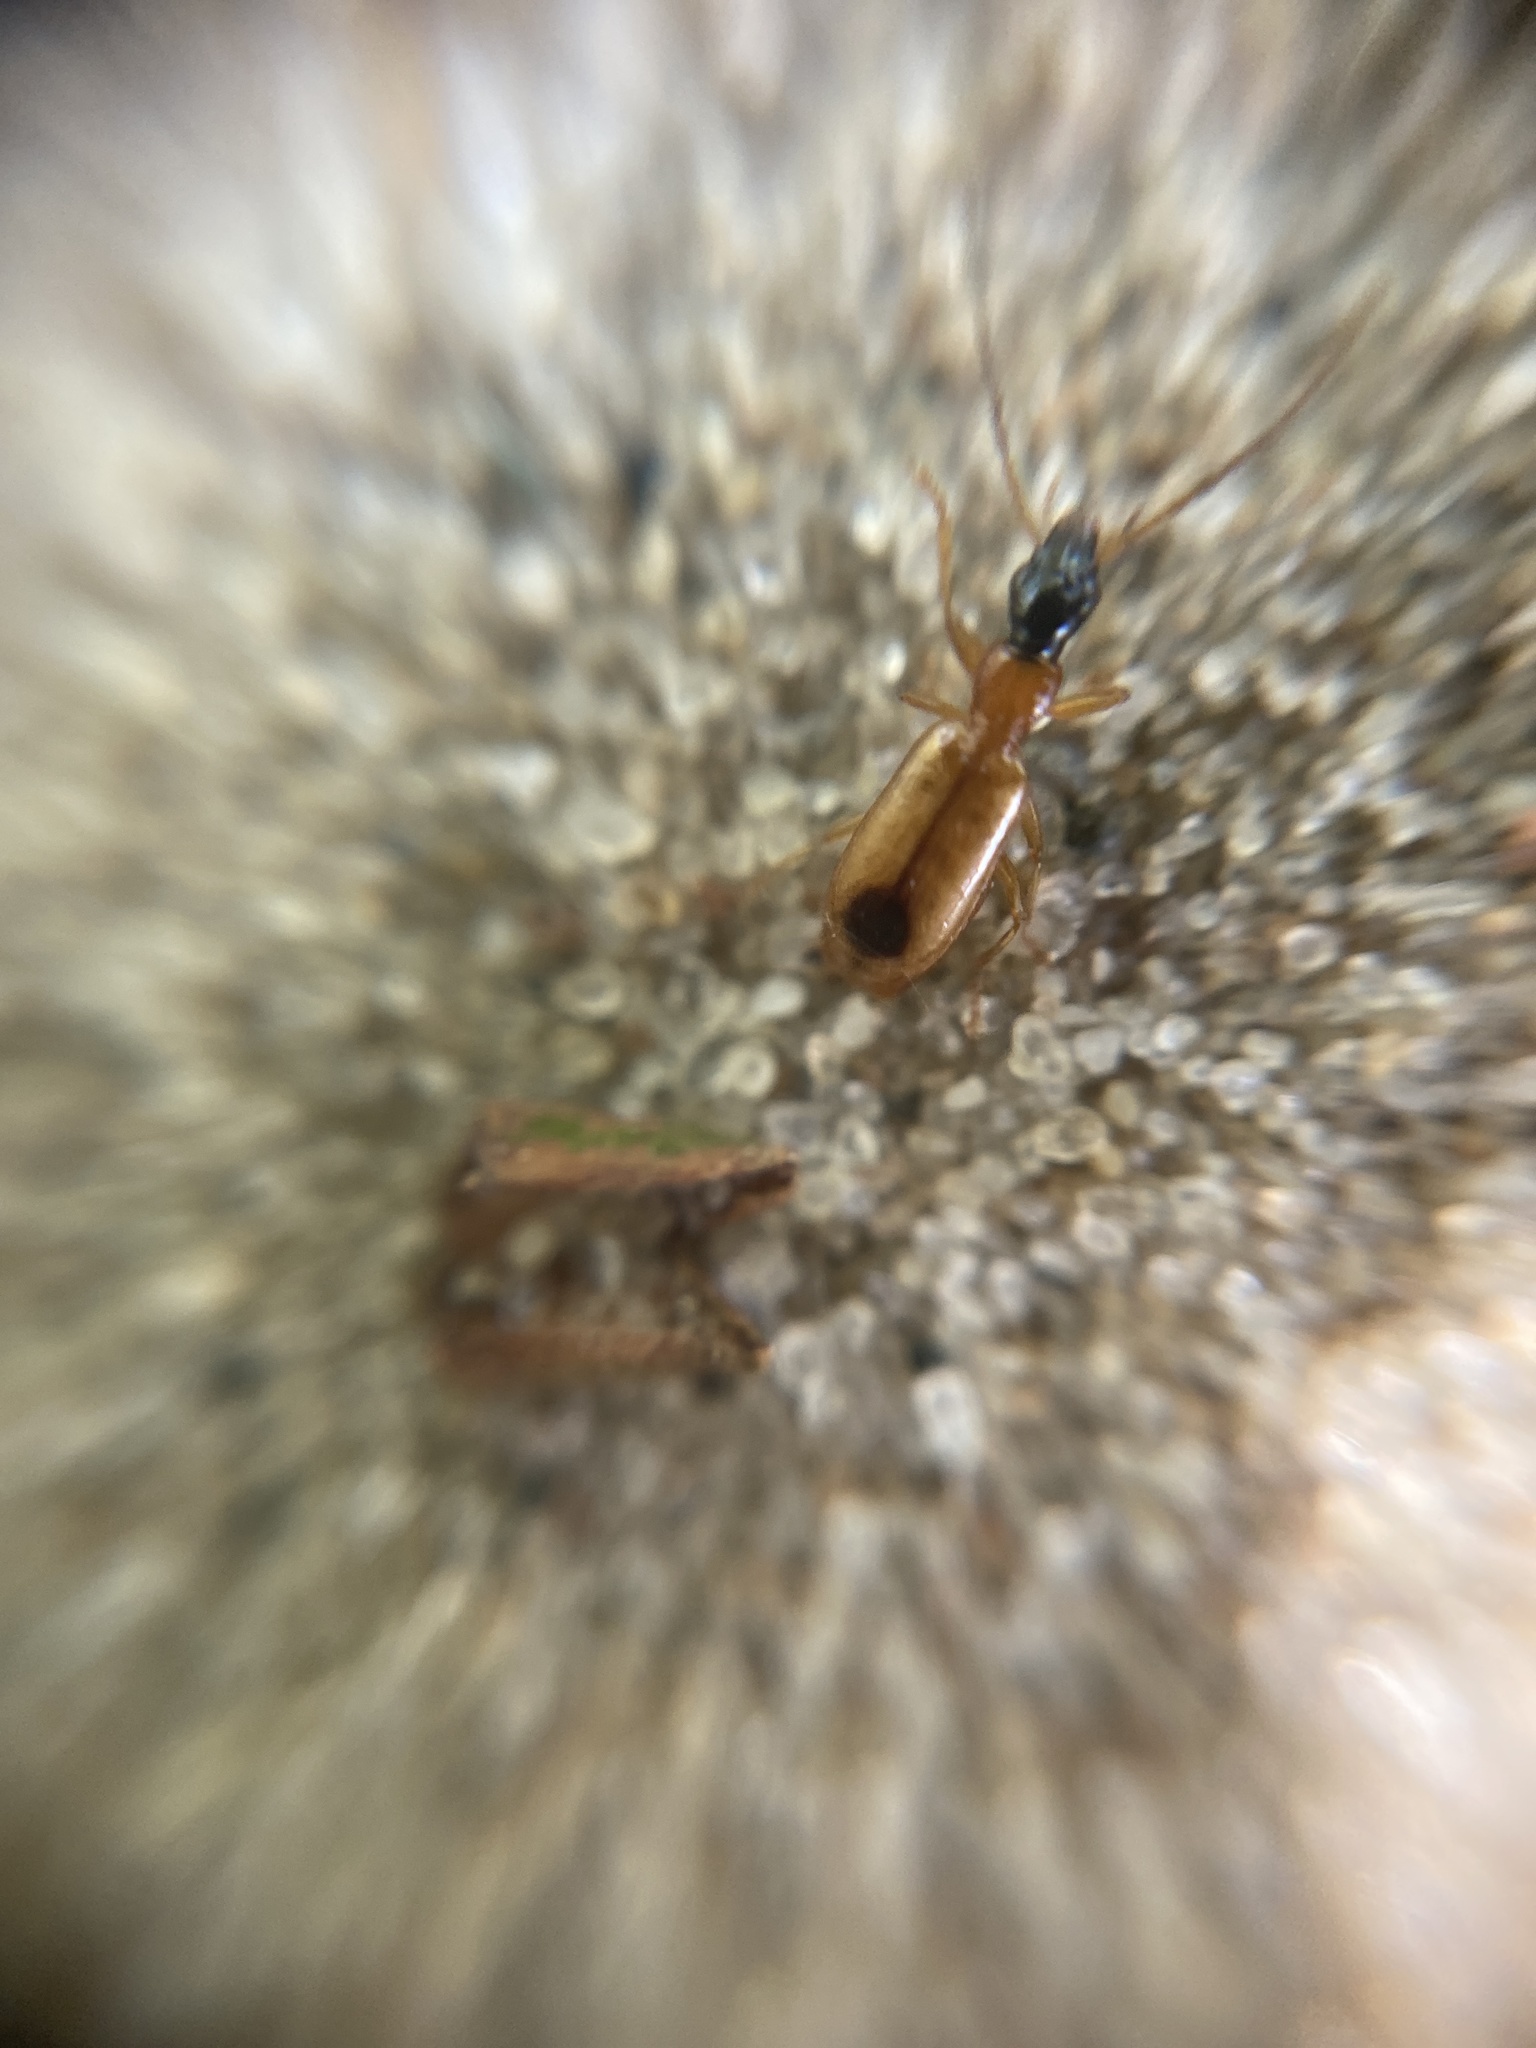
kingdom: Animalia
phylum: Arthropoda
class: Insecta
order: Coleoptera
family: Carabidae
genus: Demetrias
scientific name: Demetrias monostigma
